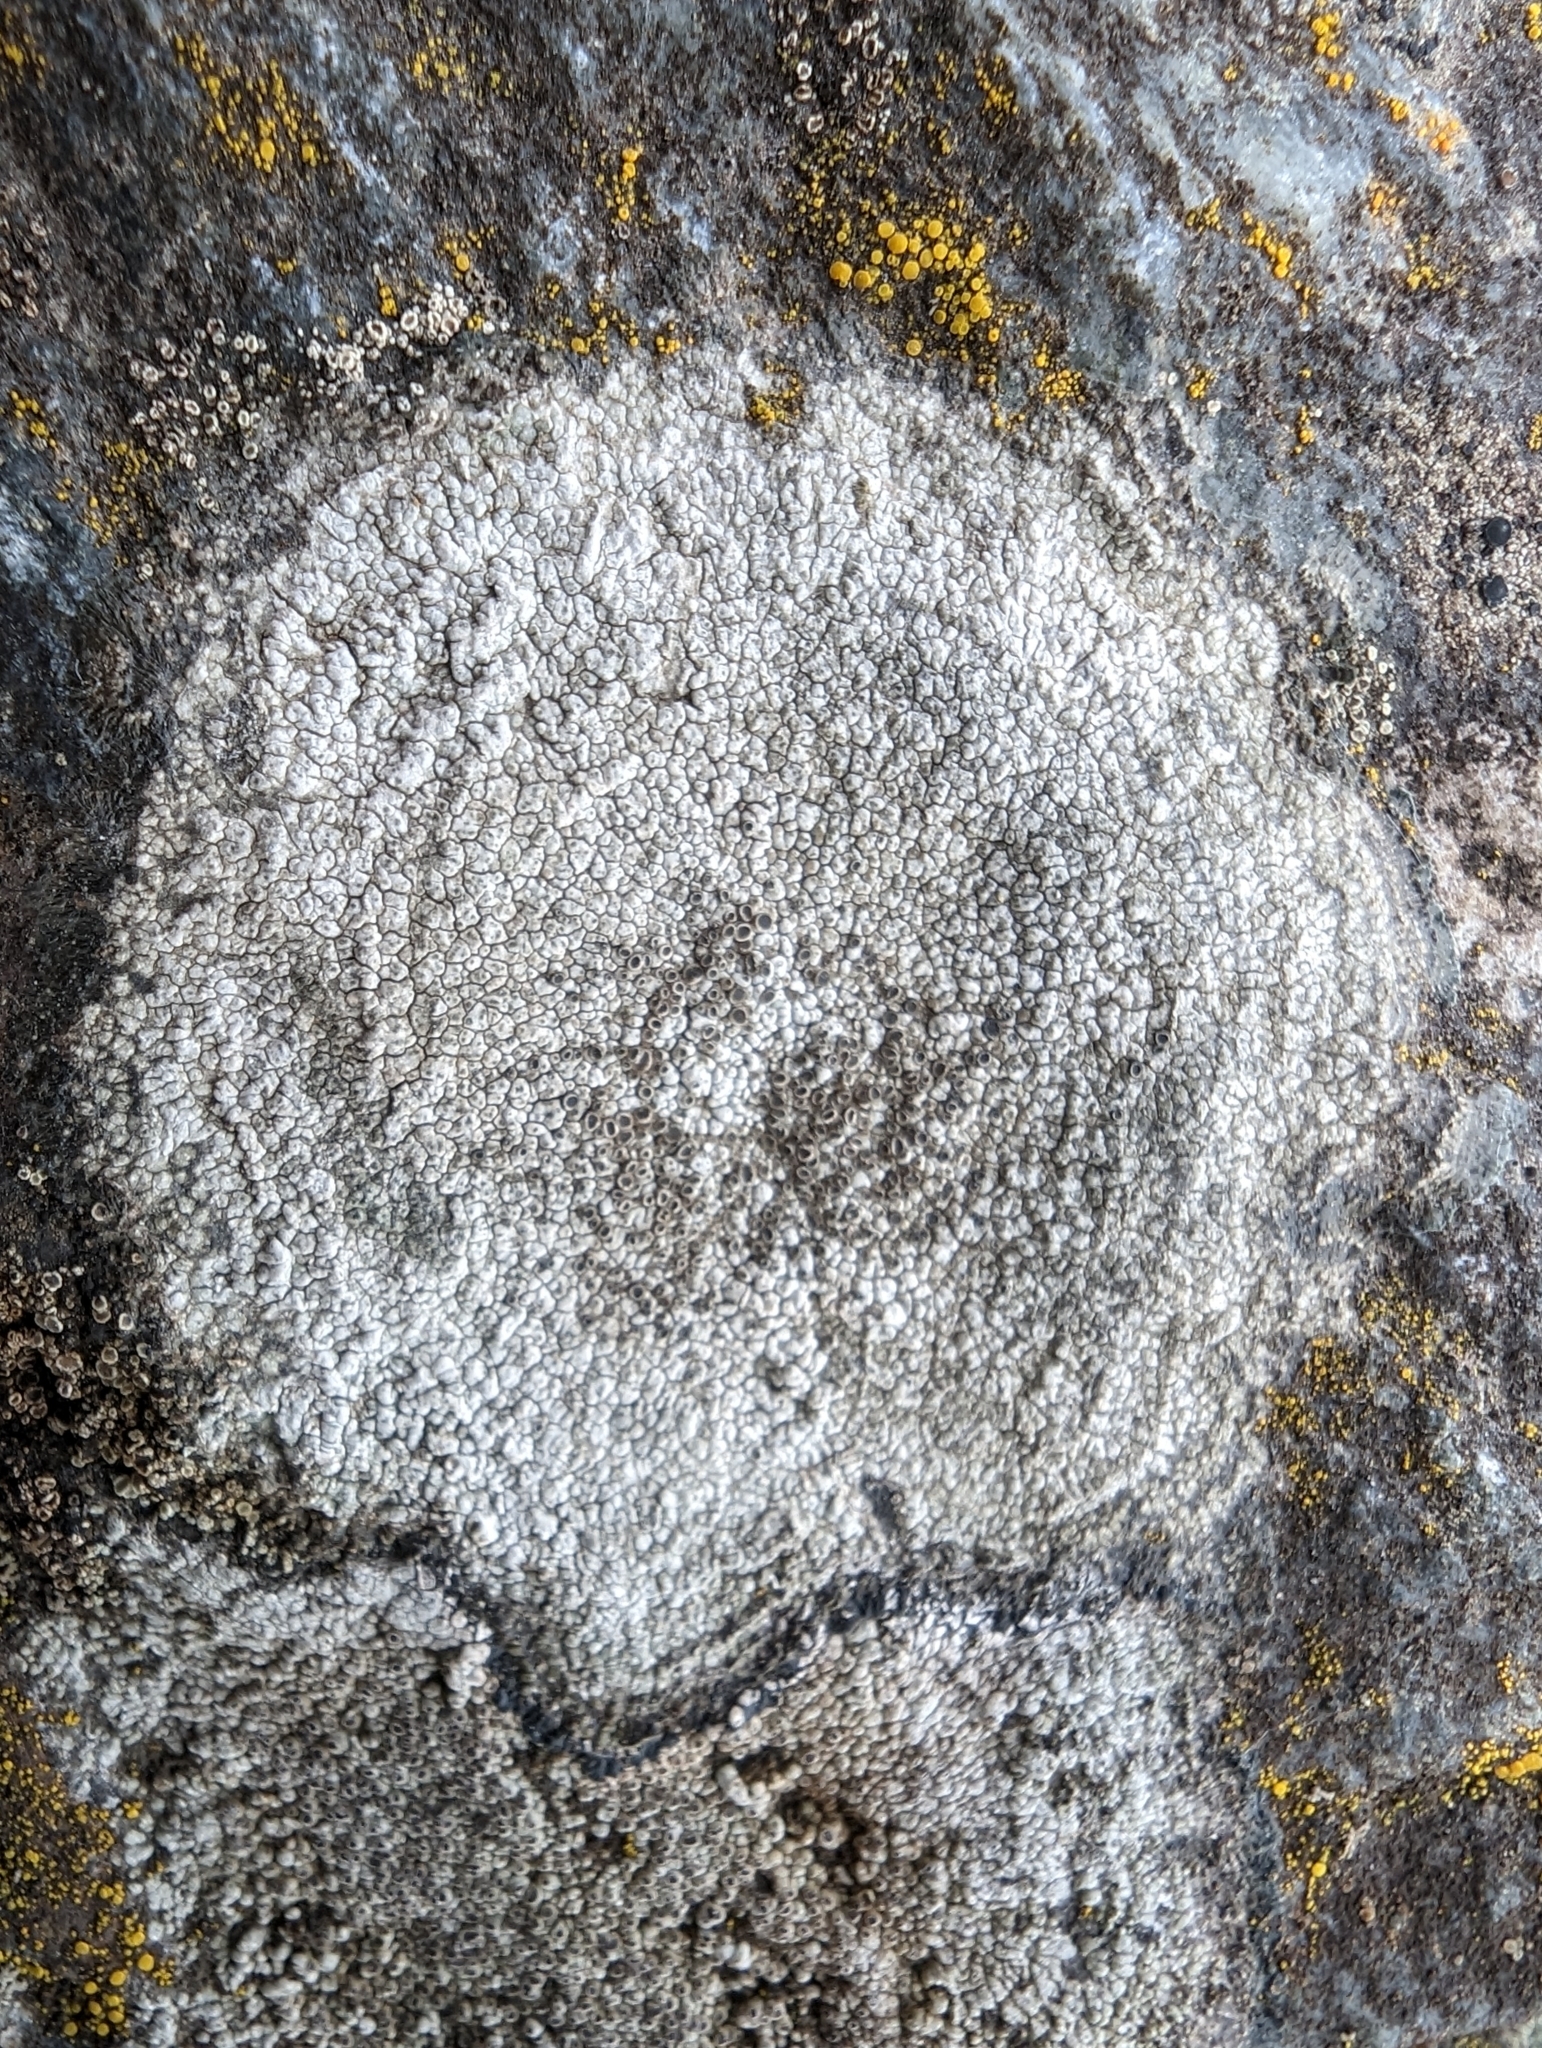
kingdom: Fungi
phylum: Ascomycota
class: Lecanoromycetes
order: Pertusariales
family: Megasporaceae
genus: Aspicilia
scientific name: Aspicilia cinerea
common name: Cinder lichen
